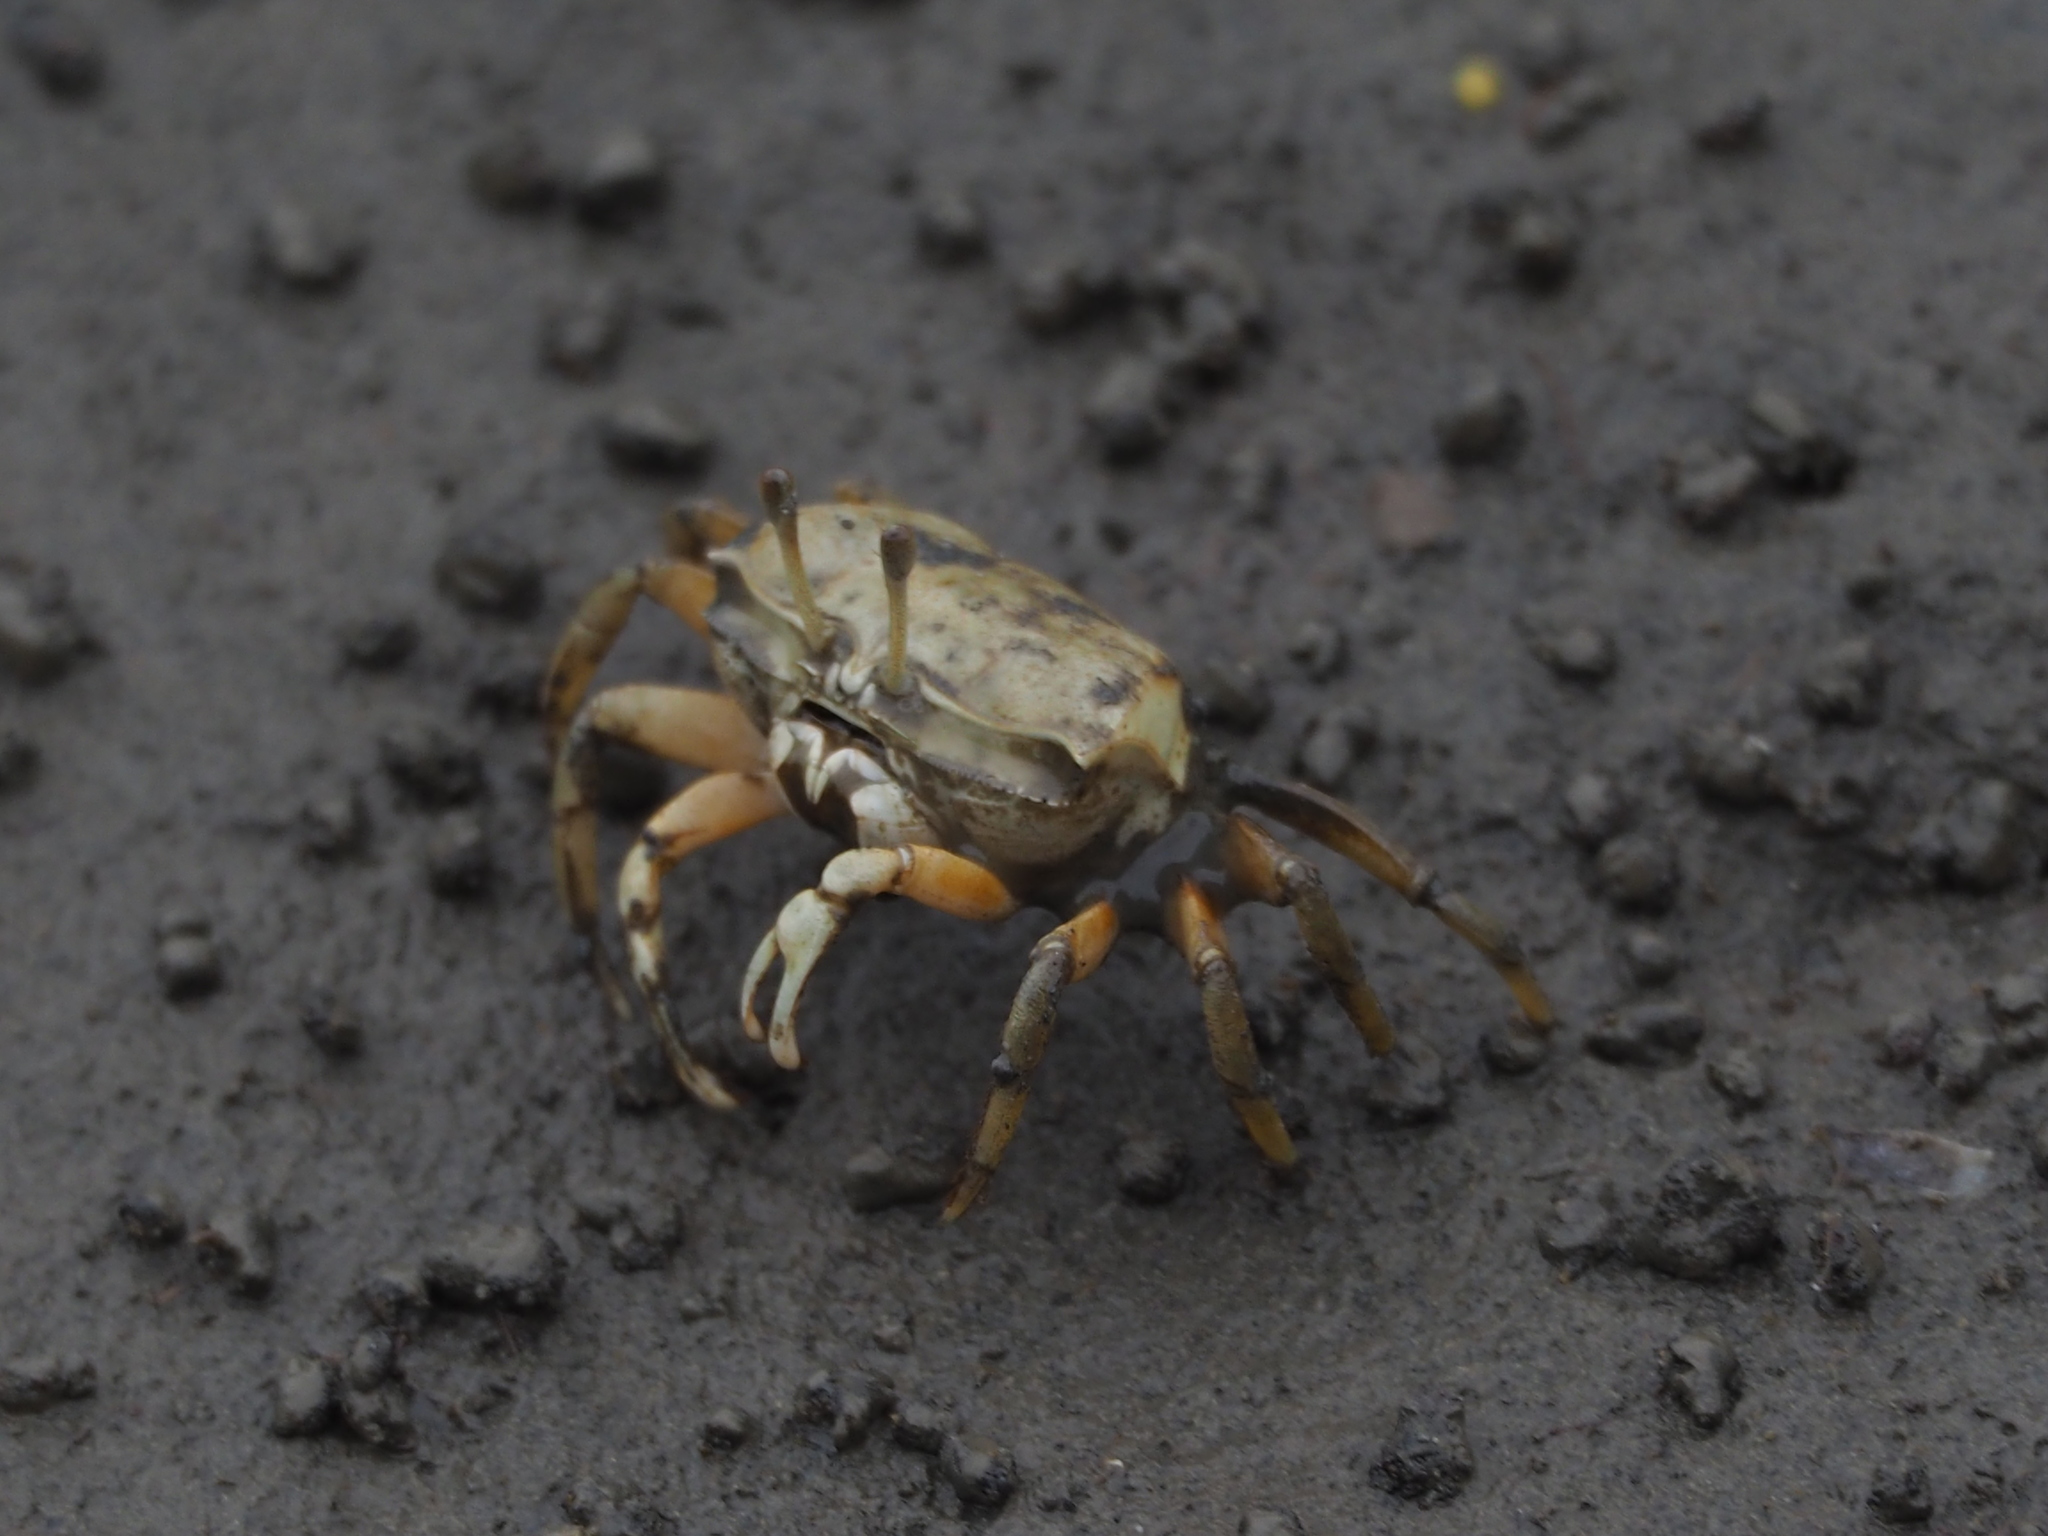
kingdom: Animalia
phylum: Arthropoda
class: Malacostraca
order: Decapoda
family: Ocypodidae
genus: Gelasimus
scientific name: Gelasimus borealis
